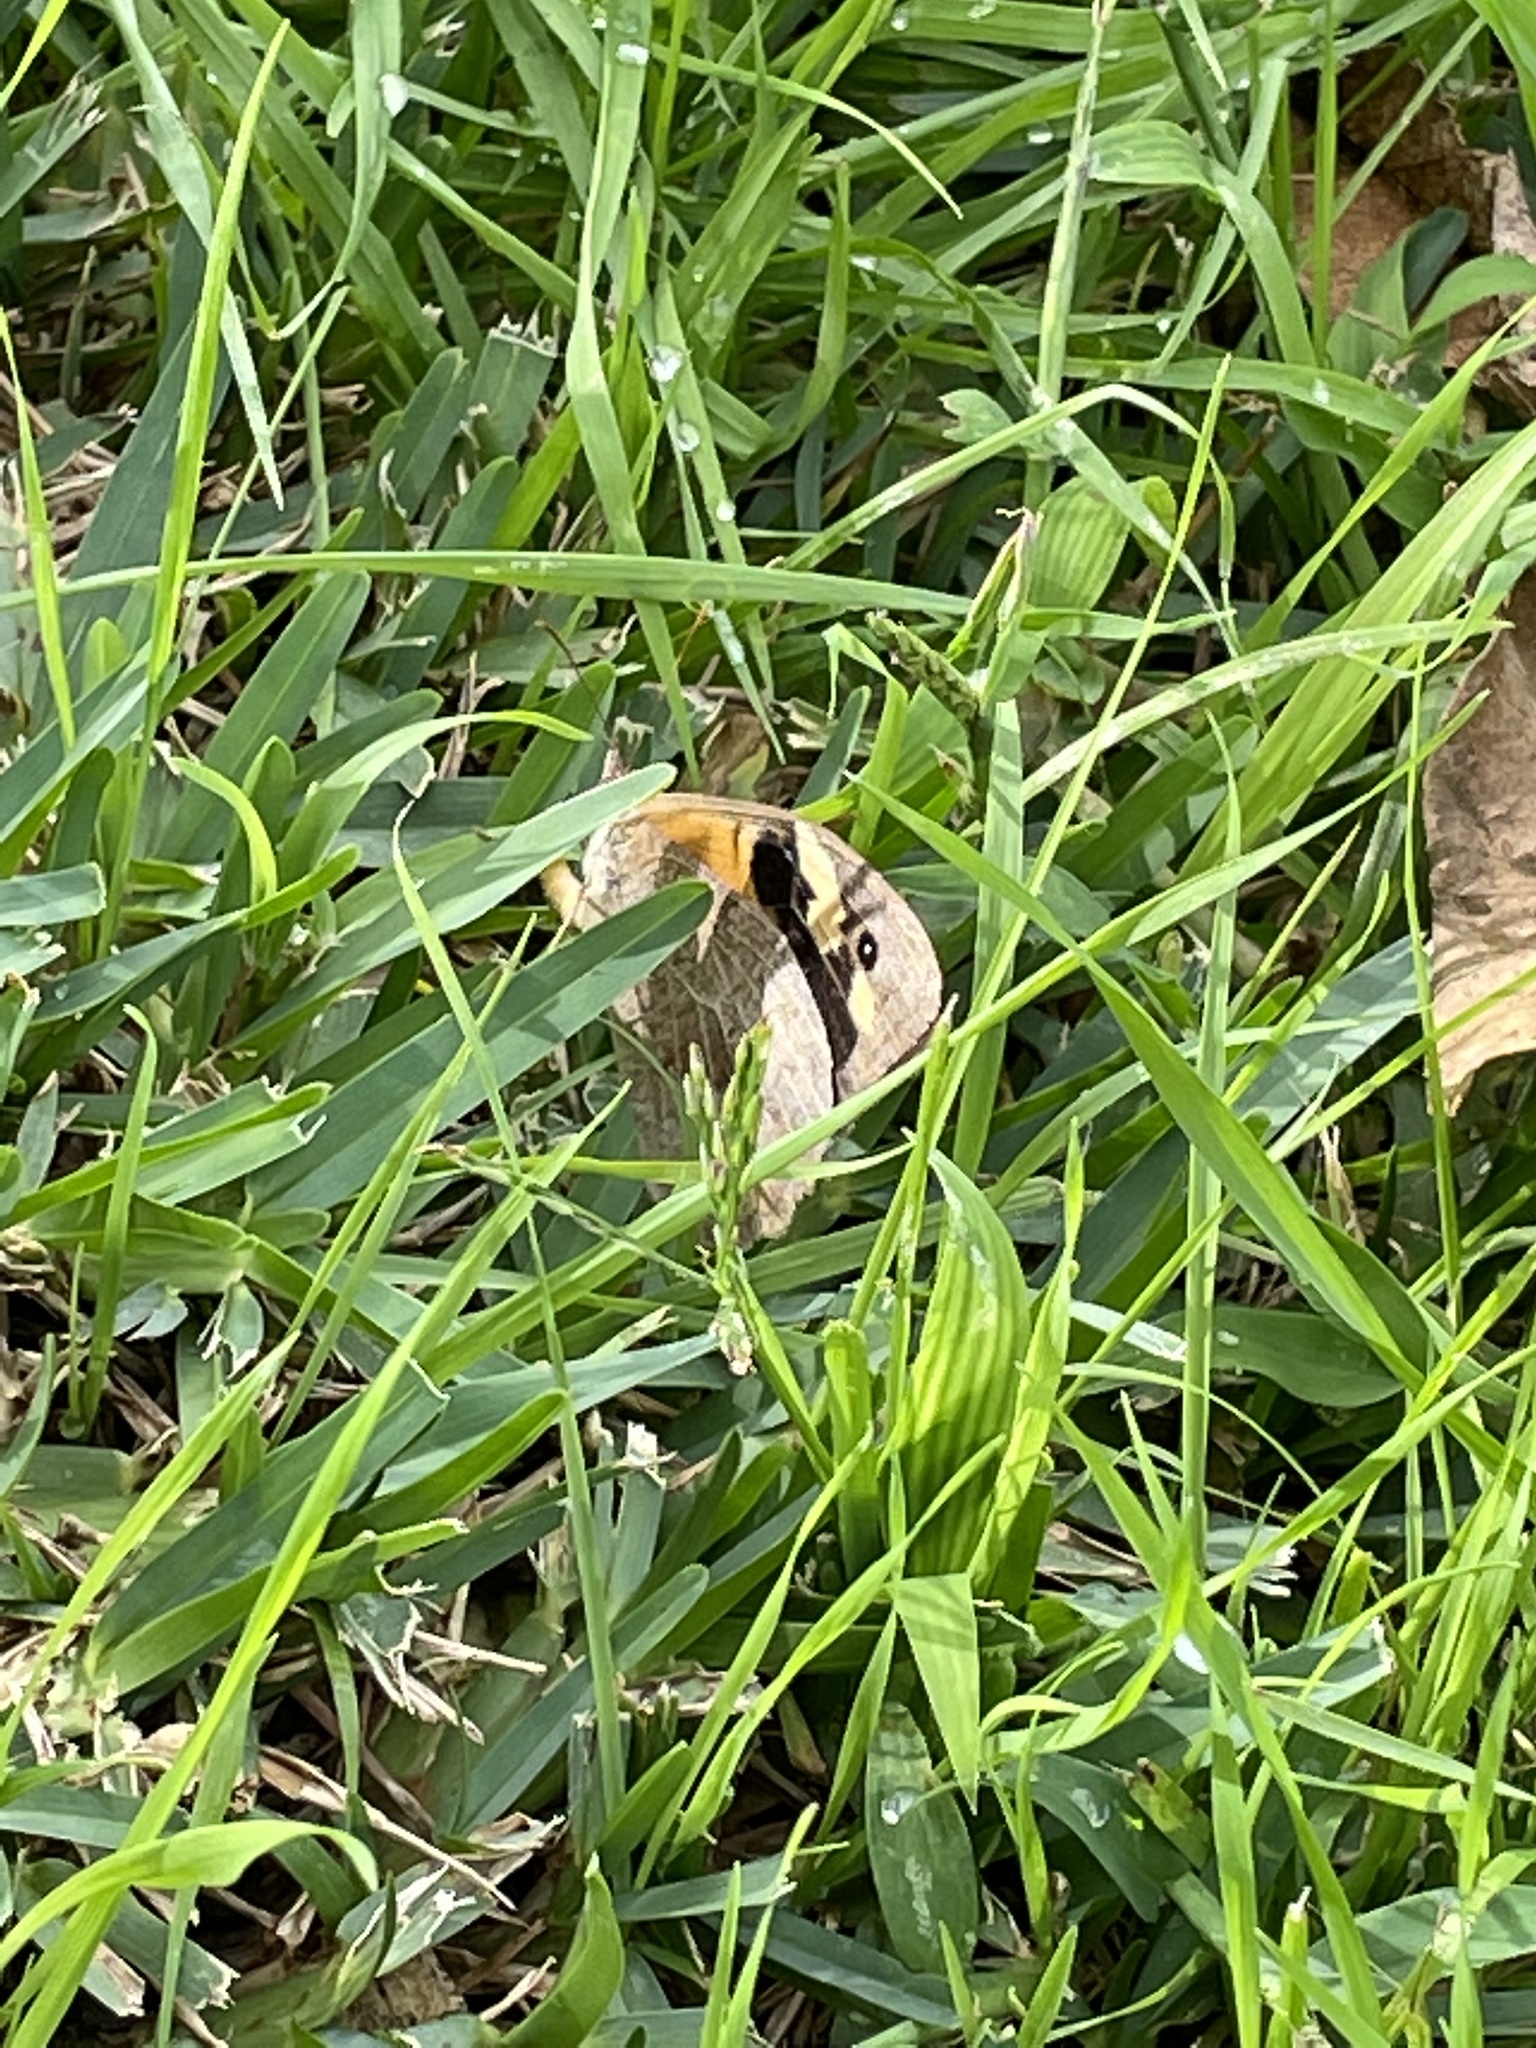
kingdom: Animalia
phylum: Arthropoda
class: Insecta
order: Lepidoptera
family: Nymphalidae
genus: Heteronympha
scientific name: Heteronympha merope
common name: Common brown
